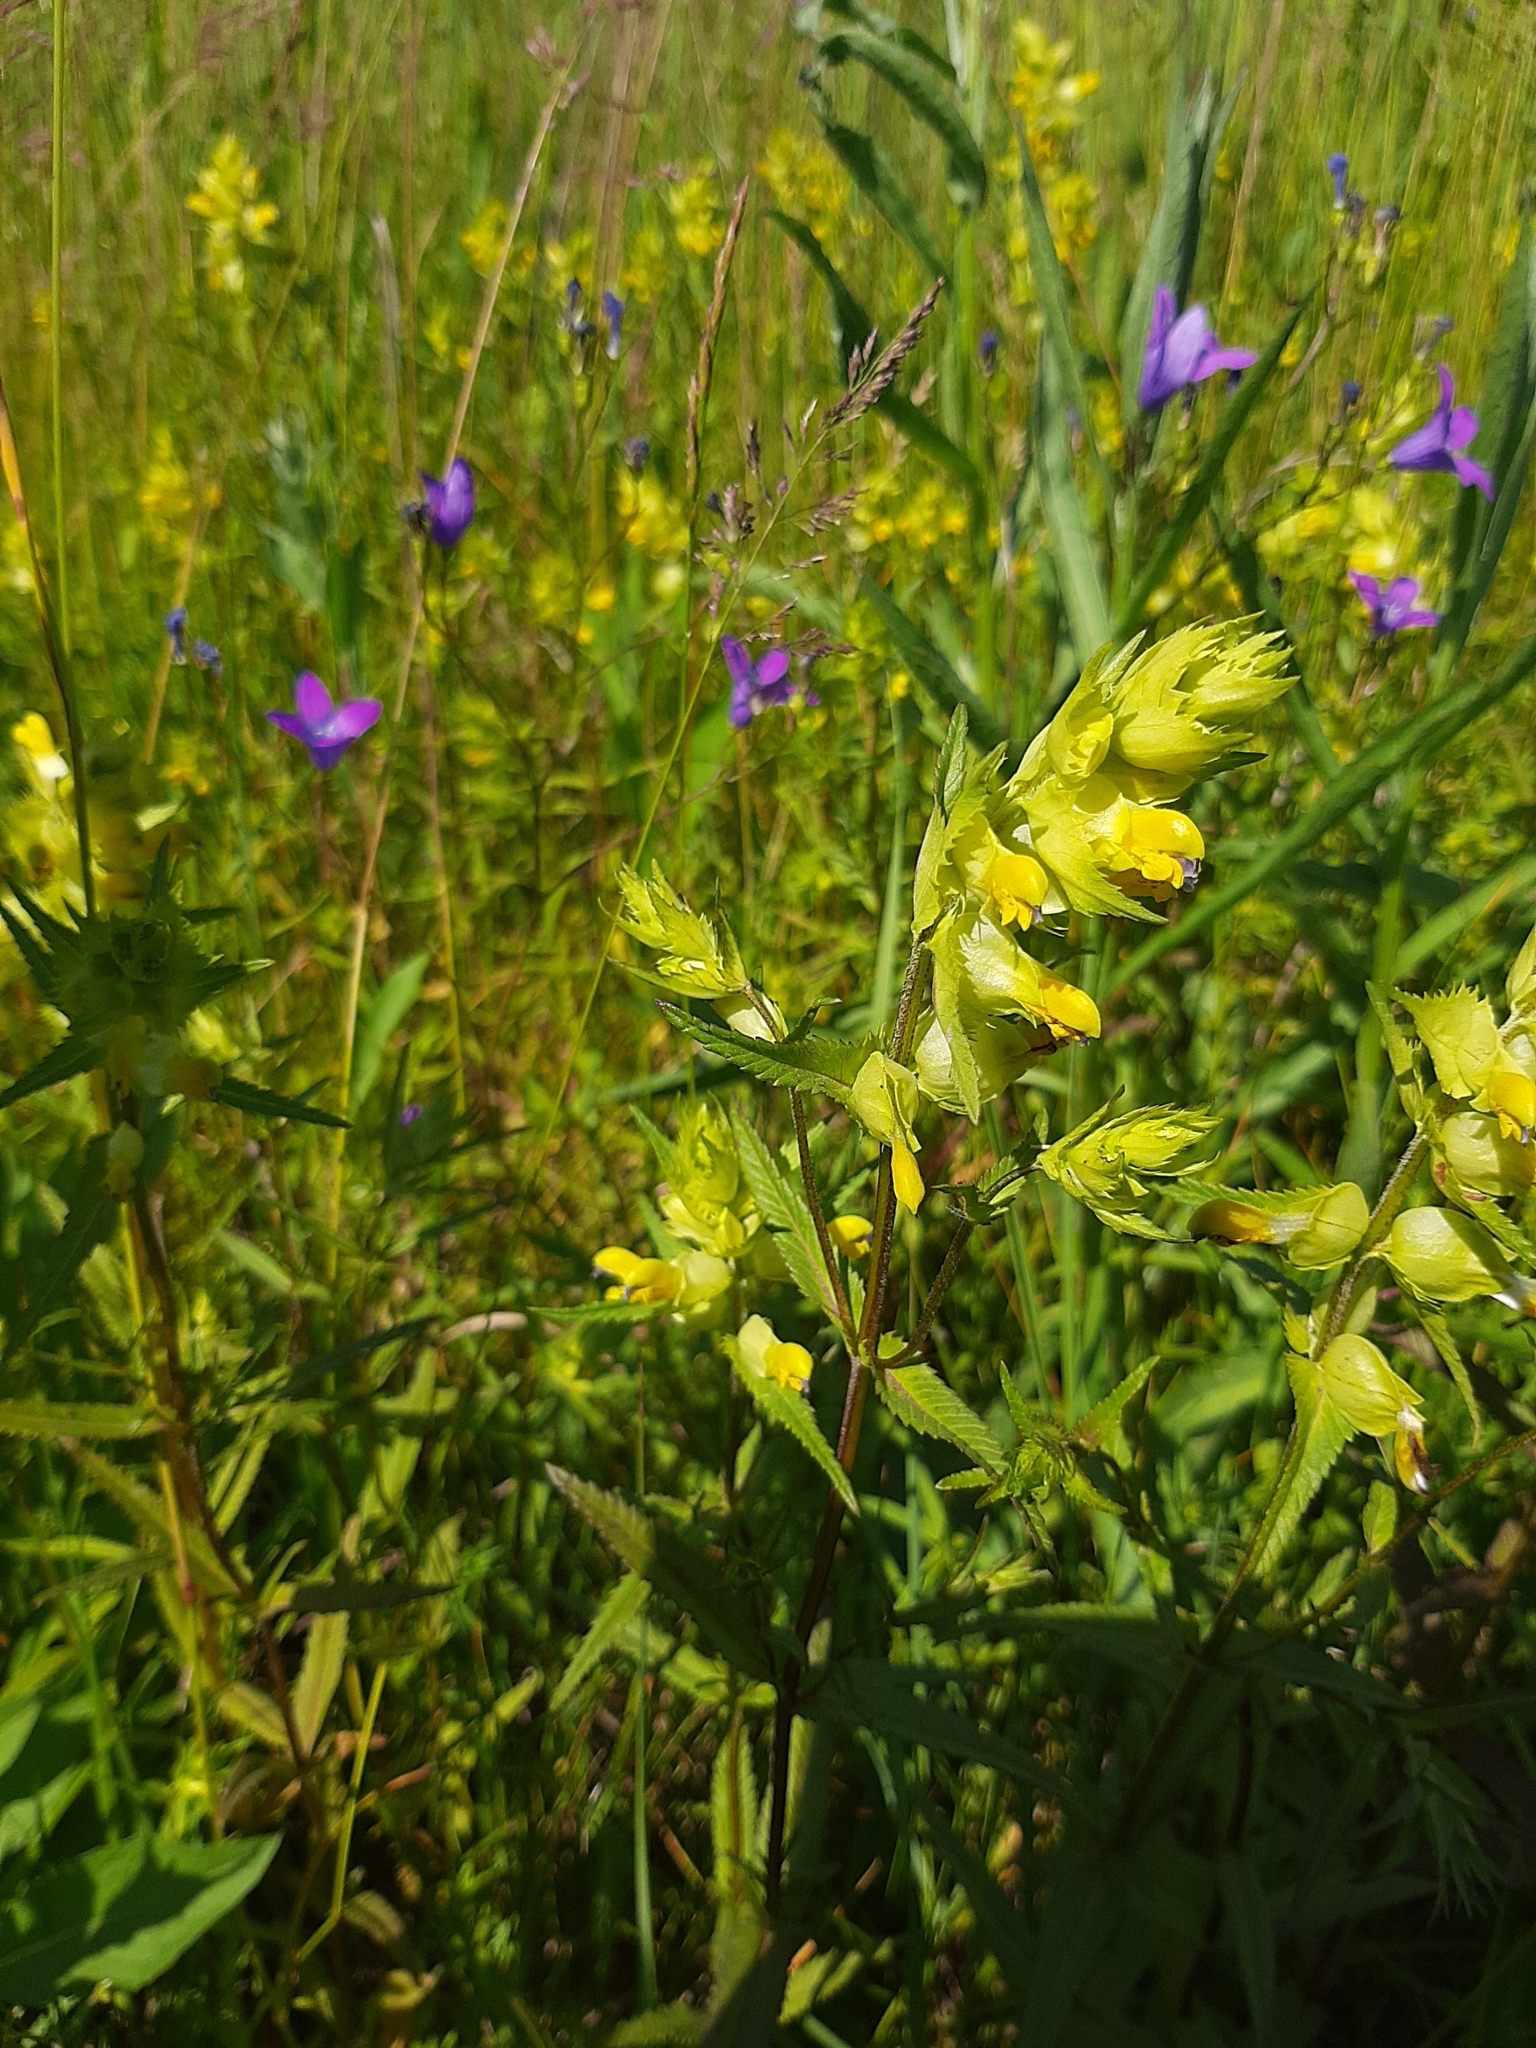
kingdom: Plantae
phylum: Tracheophyta
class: Magnoliopsida
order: Lamiales
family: Orobanchaceae
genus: Rhinanthus
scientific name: Rhinanthus serotinus
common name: Late-flowering yellow rattle
